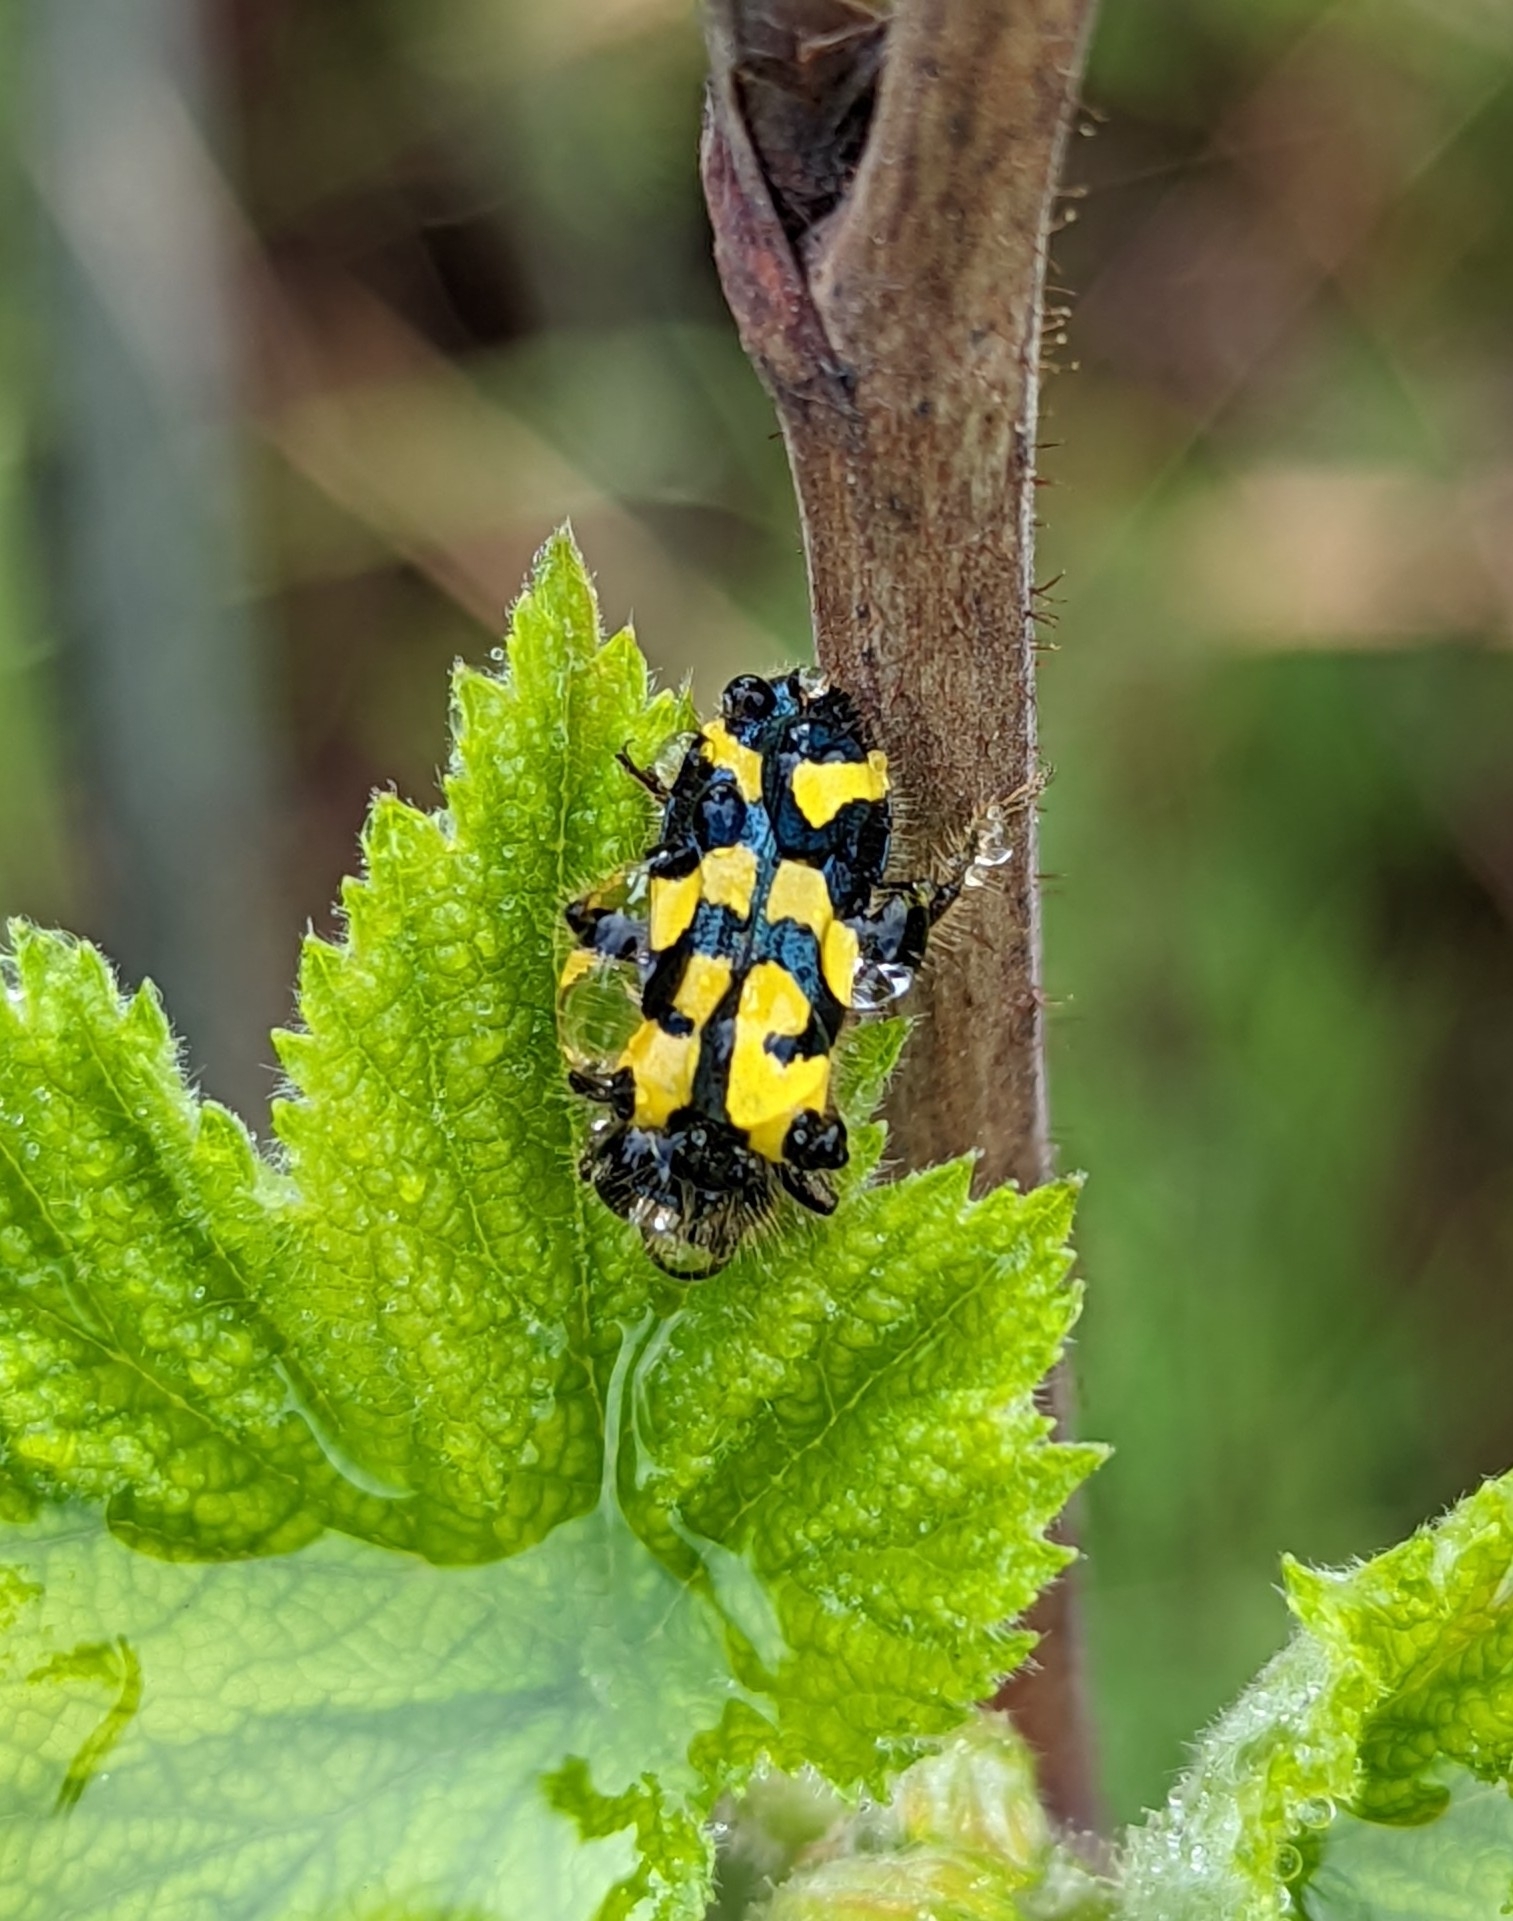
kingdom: Animalia
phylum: Arthropoda
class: Insecta
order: Coleoptera
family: Cleridae
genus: Trichodes
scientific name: Trichodes ornatus
